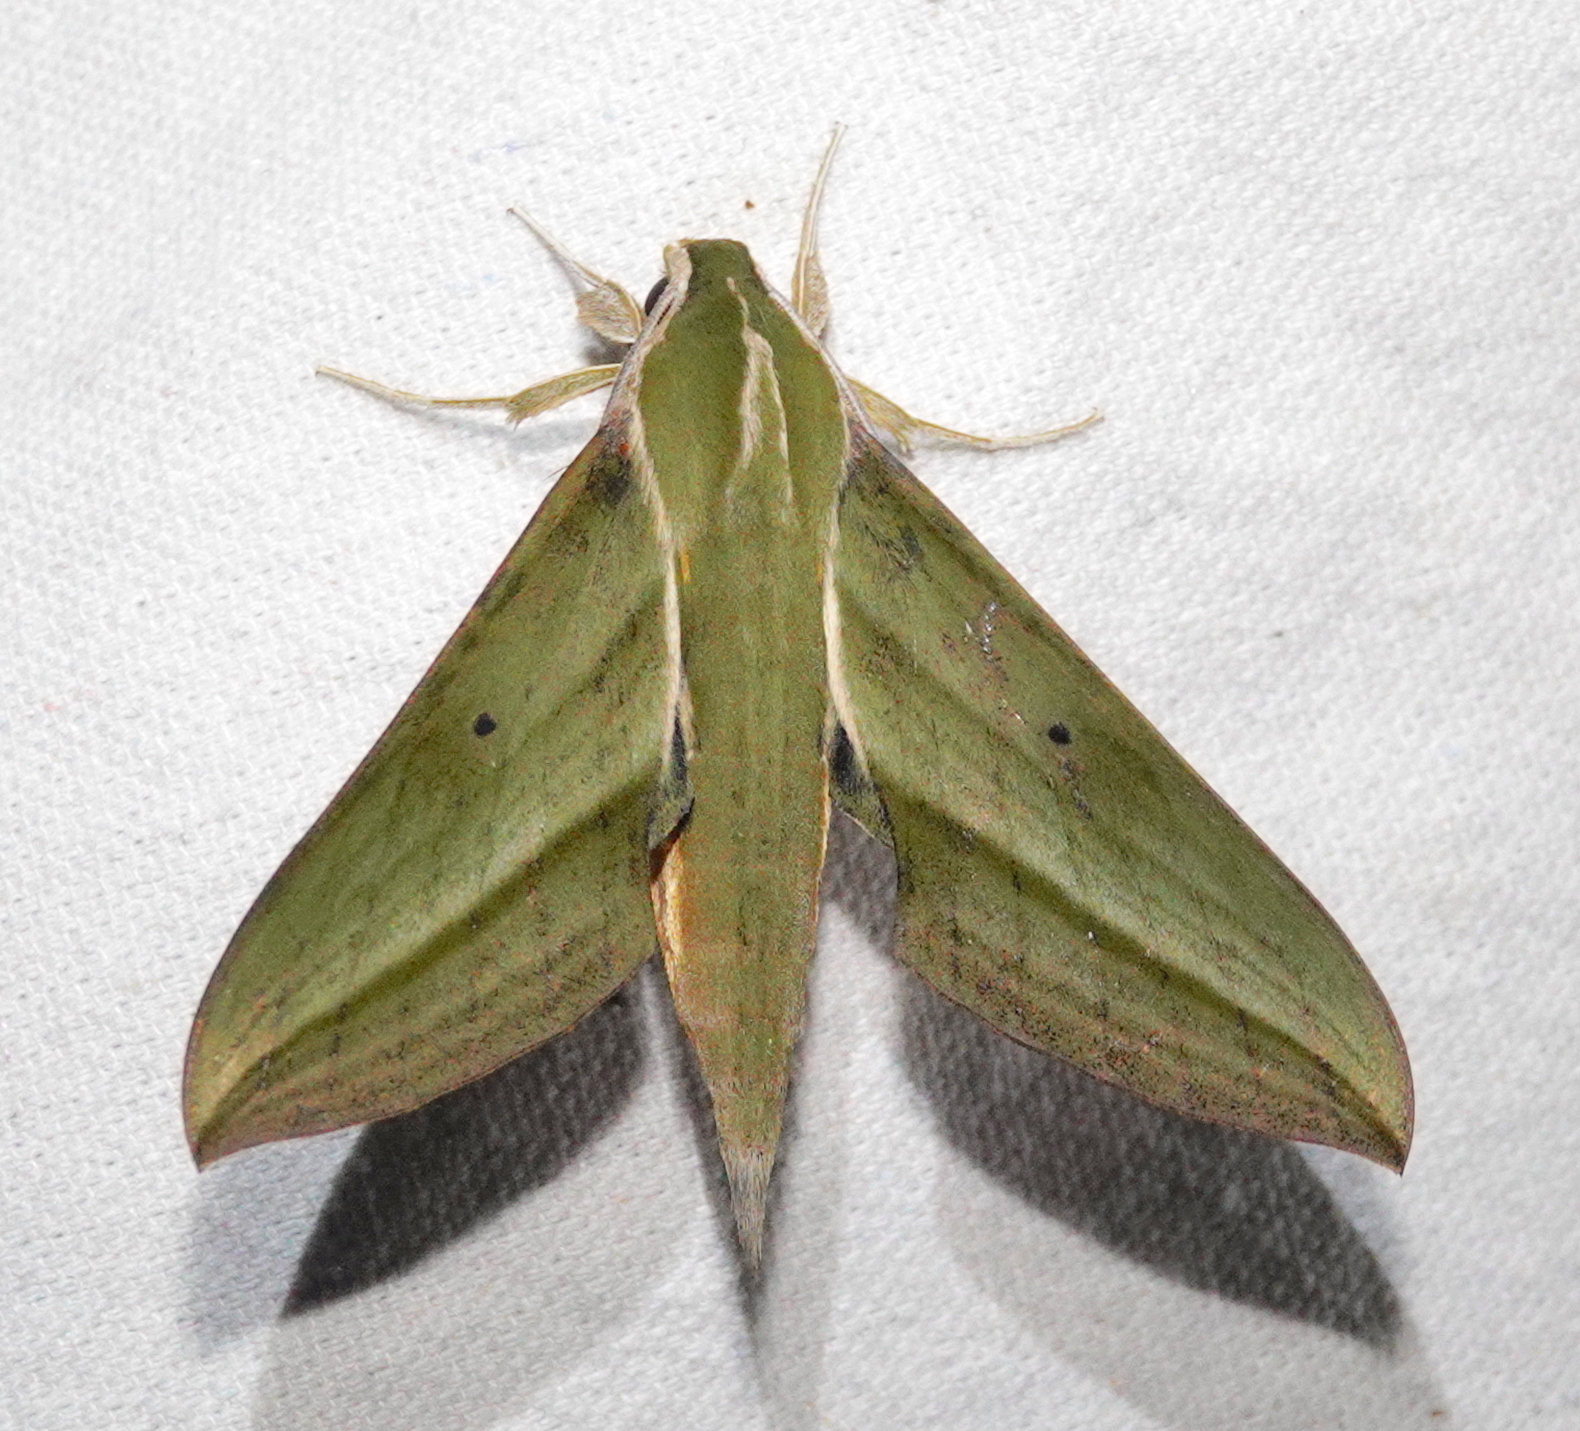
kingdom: Animalia
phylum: Arthropoda
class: Insecta
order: Lepidoptera
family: Sphingidae
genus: Xylophanes
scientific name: Xylophanes crotonis
